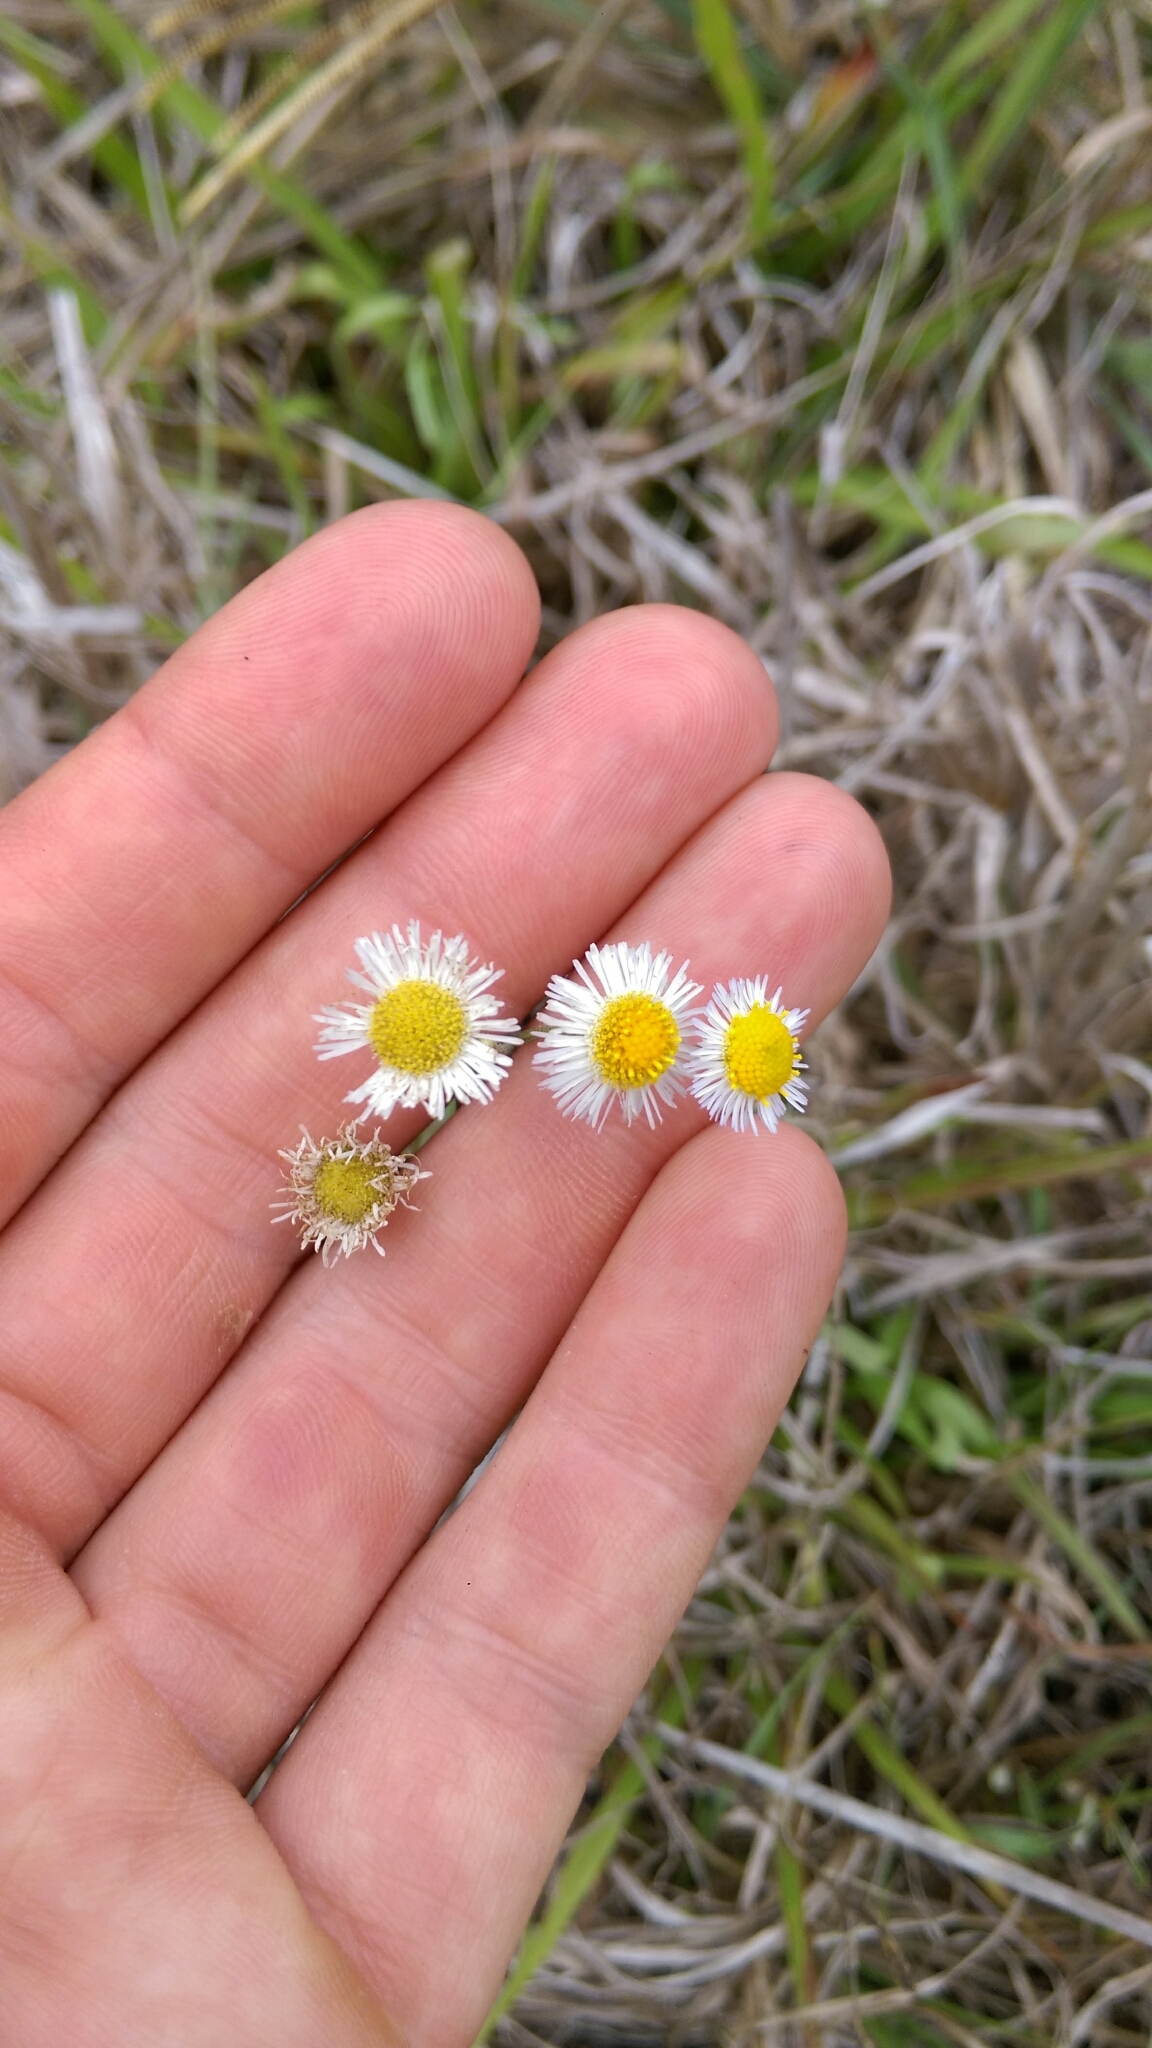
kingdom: Plantae
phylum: Tracheophyta
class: Magnoliopsida
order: Asterales
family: Asteraceae
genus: Erigeron
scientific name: Erigeron quercifolius
